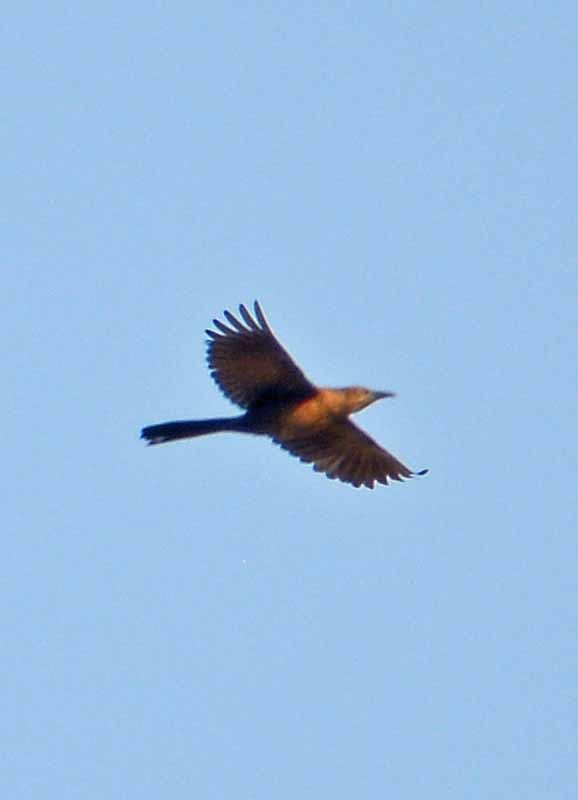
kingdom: Animalia
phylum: Chordata
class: Aves
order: Passeriformes
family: Icteridae
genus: Quiscalus
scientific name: Quiscalus mexicanus
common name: Great-tailed grackle
